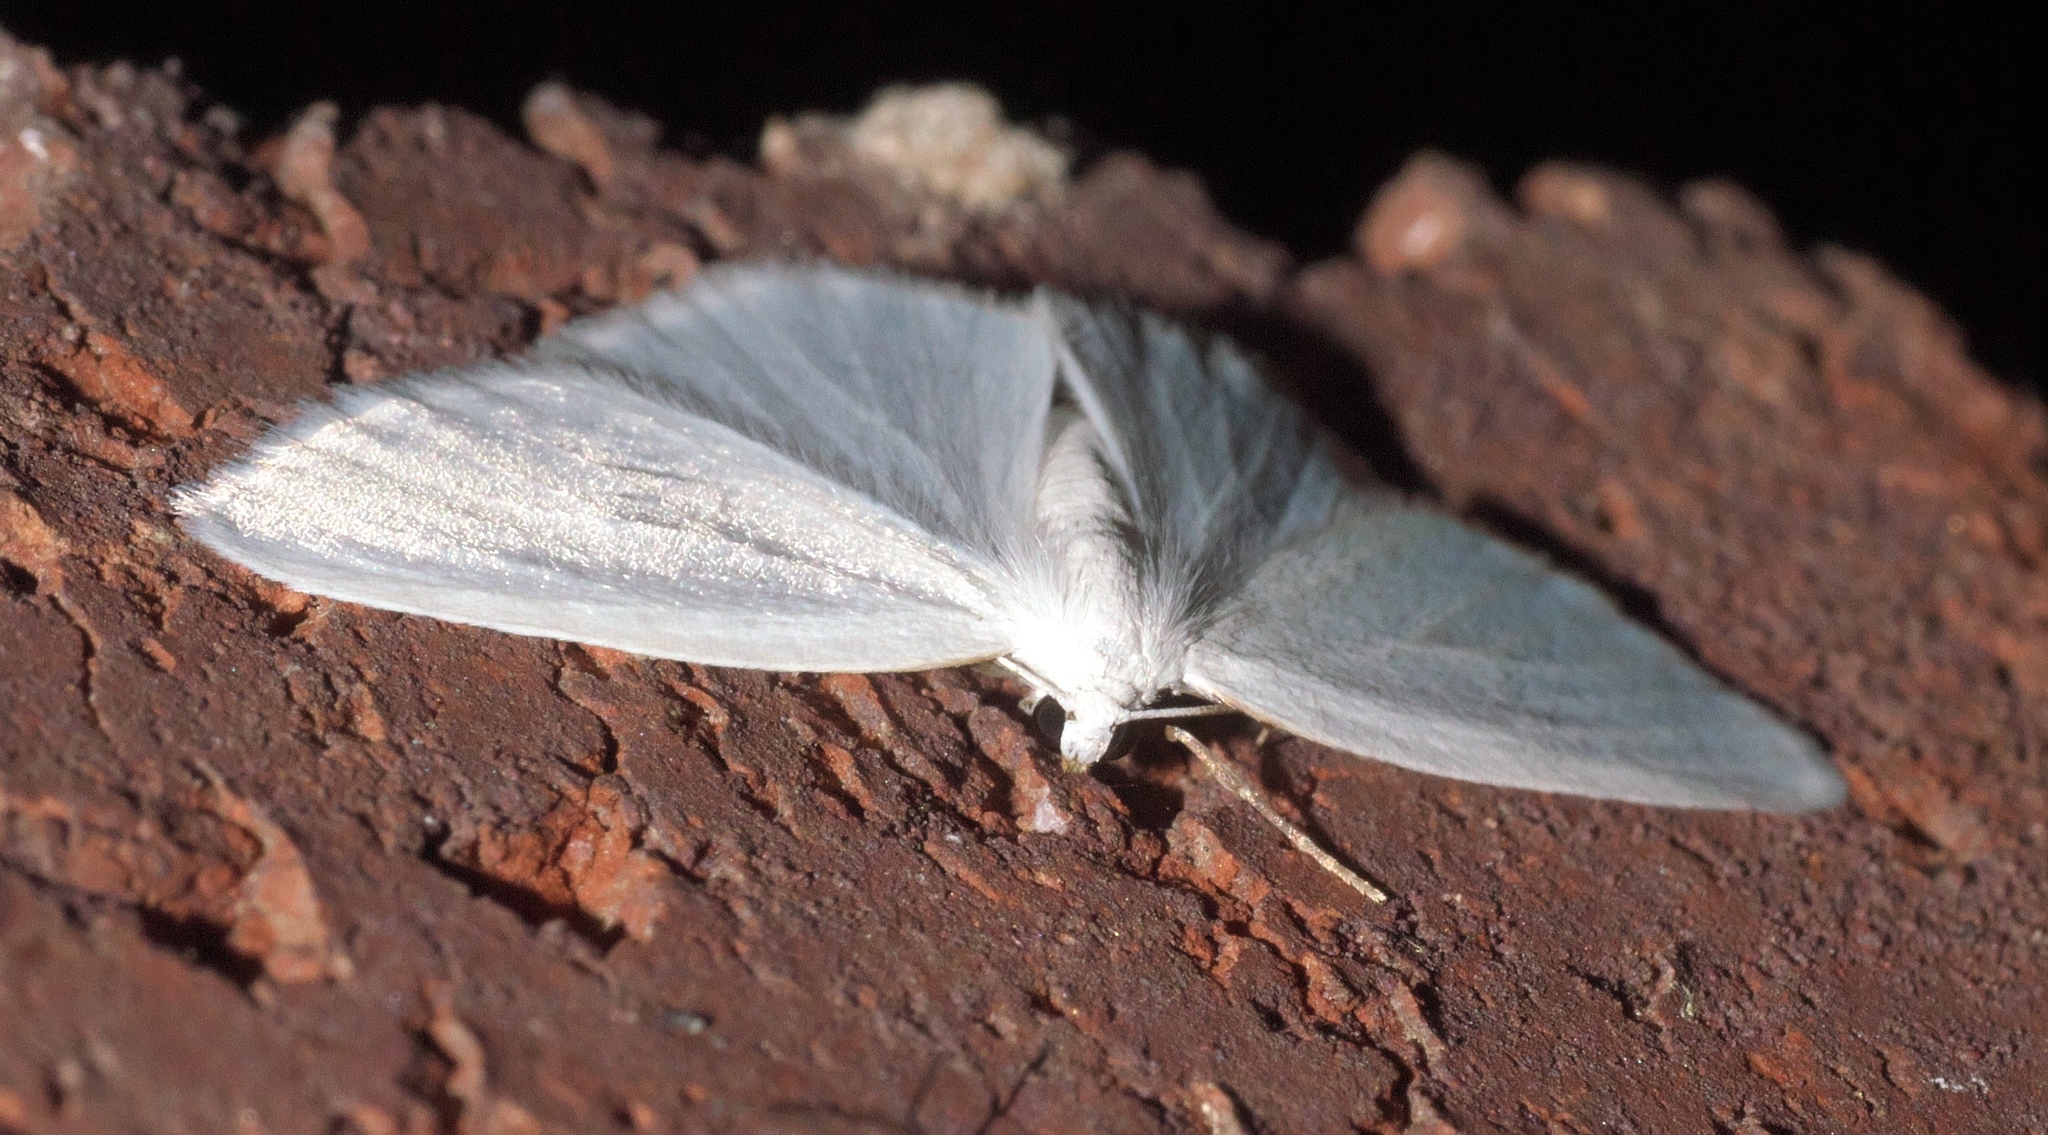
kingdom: Animalia
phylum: Arthropoda
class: Insecta
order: Lepidoptera
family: Geometridae
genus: Lomographa
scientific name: Lomographa vestaliata
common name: White spring moth
